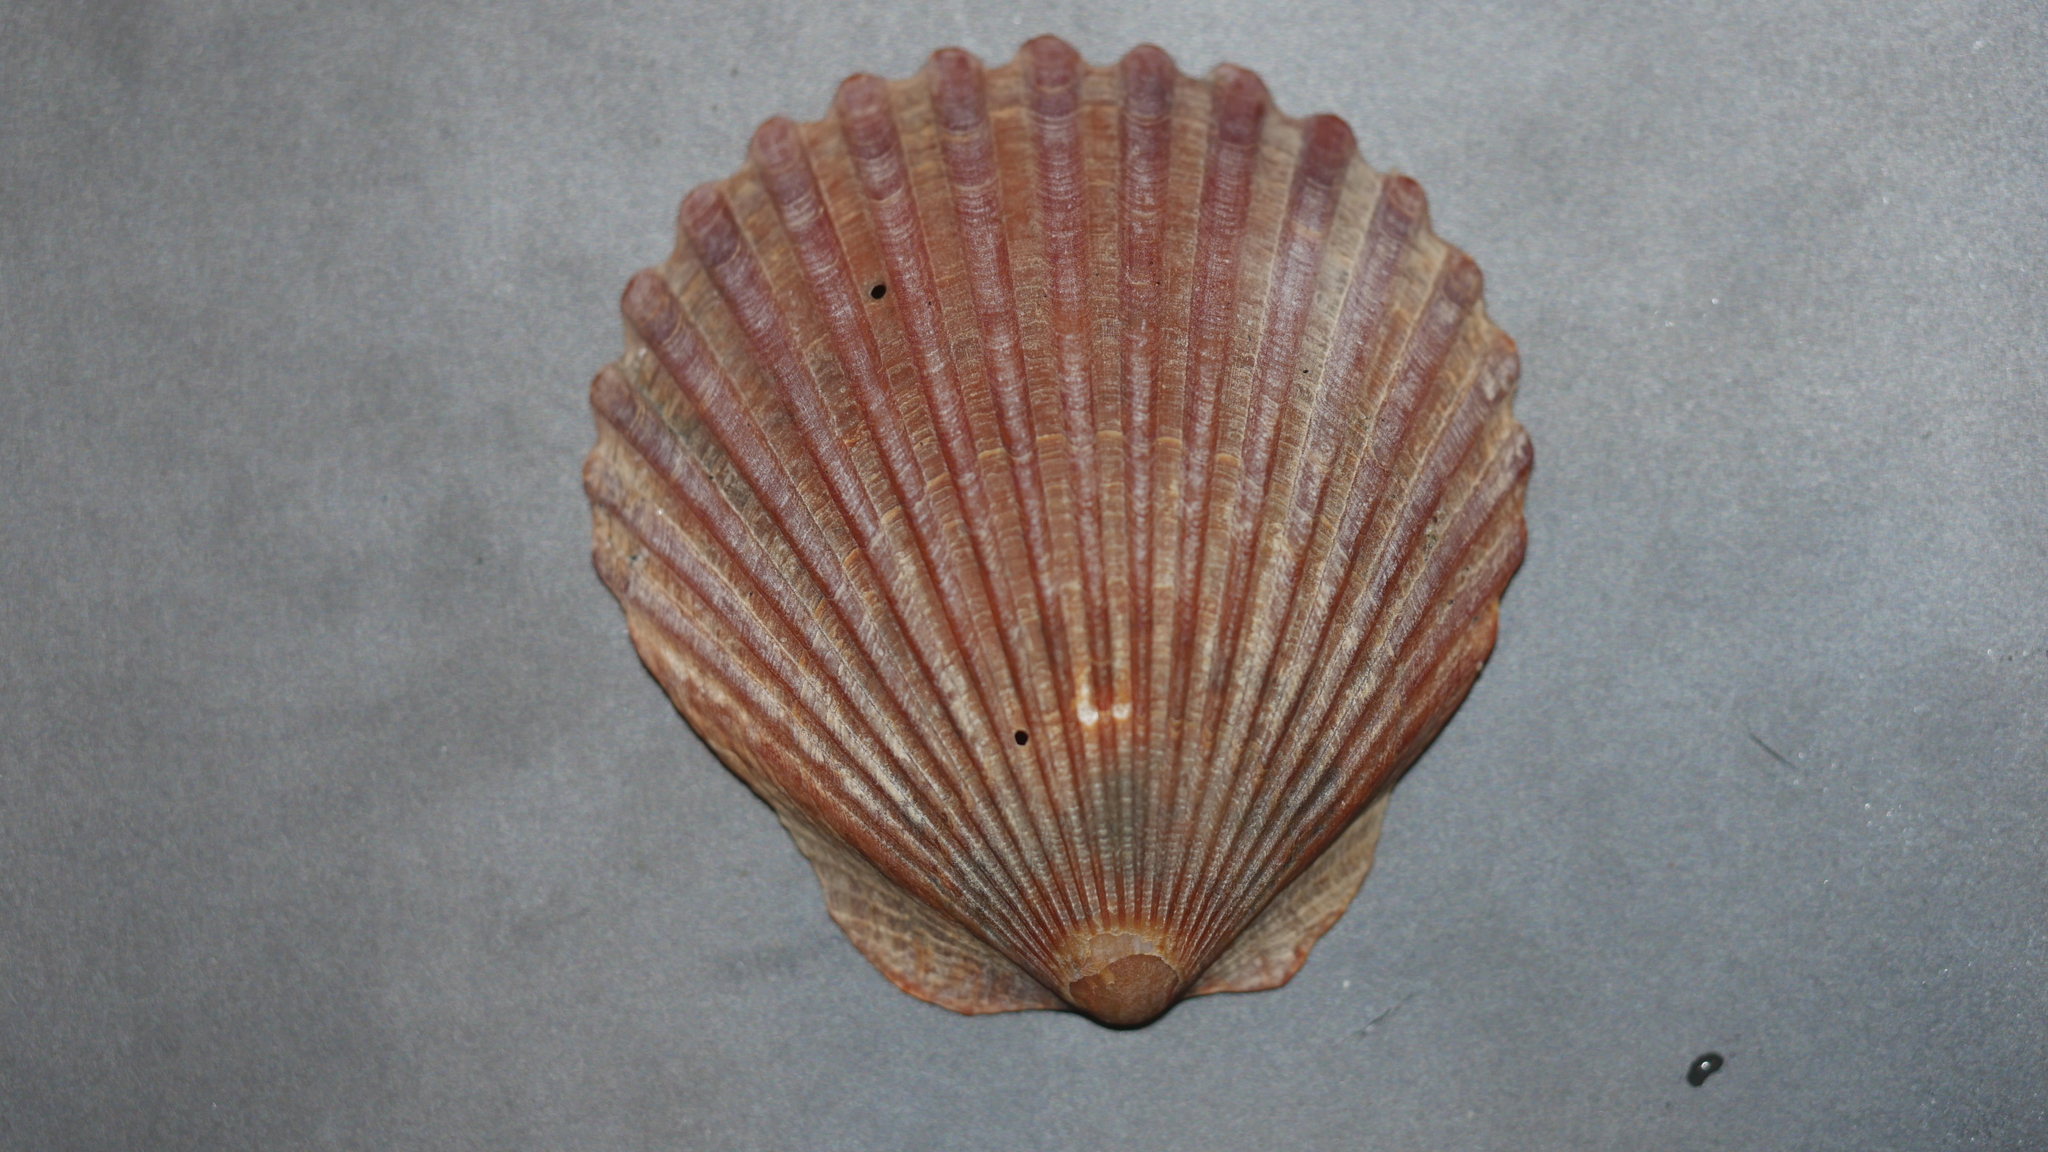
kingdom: Animalia
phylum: Mollusca
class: Bivalvia
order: Pectinida
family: Pectinidae
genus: Argopecten
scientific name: Argopecten irradians
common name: Atlantic bay scallop
